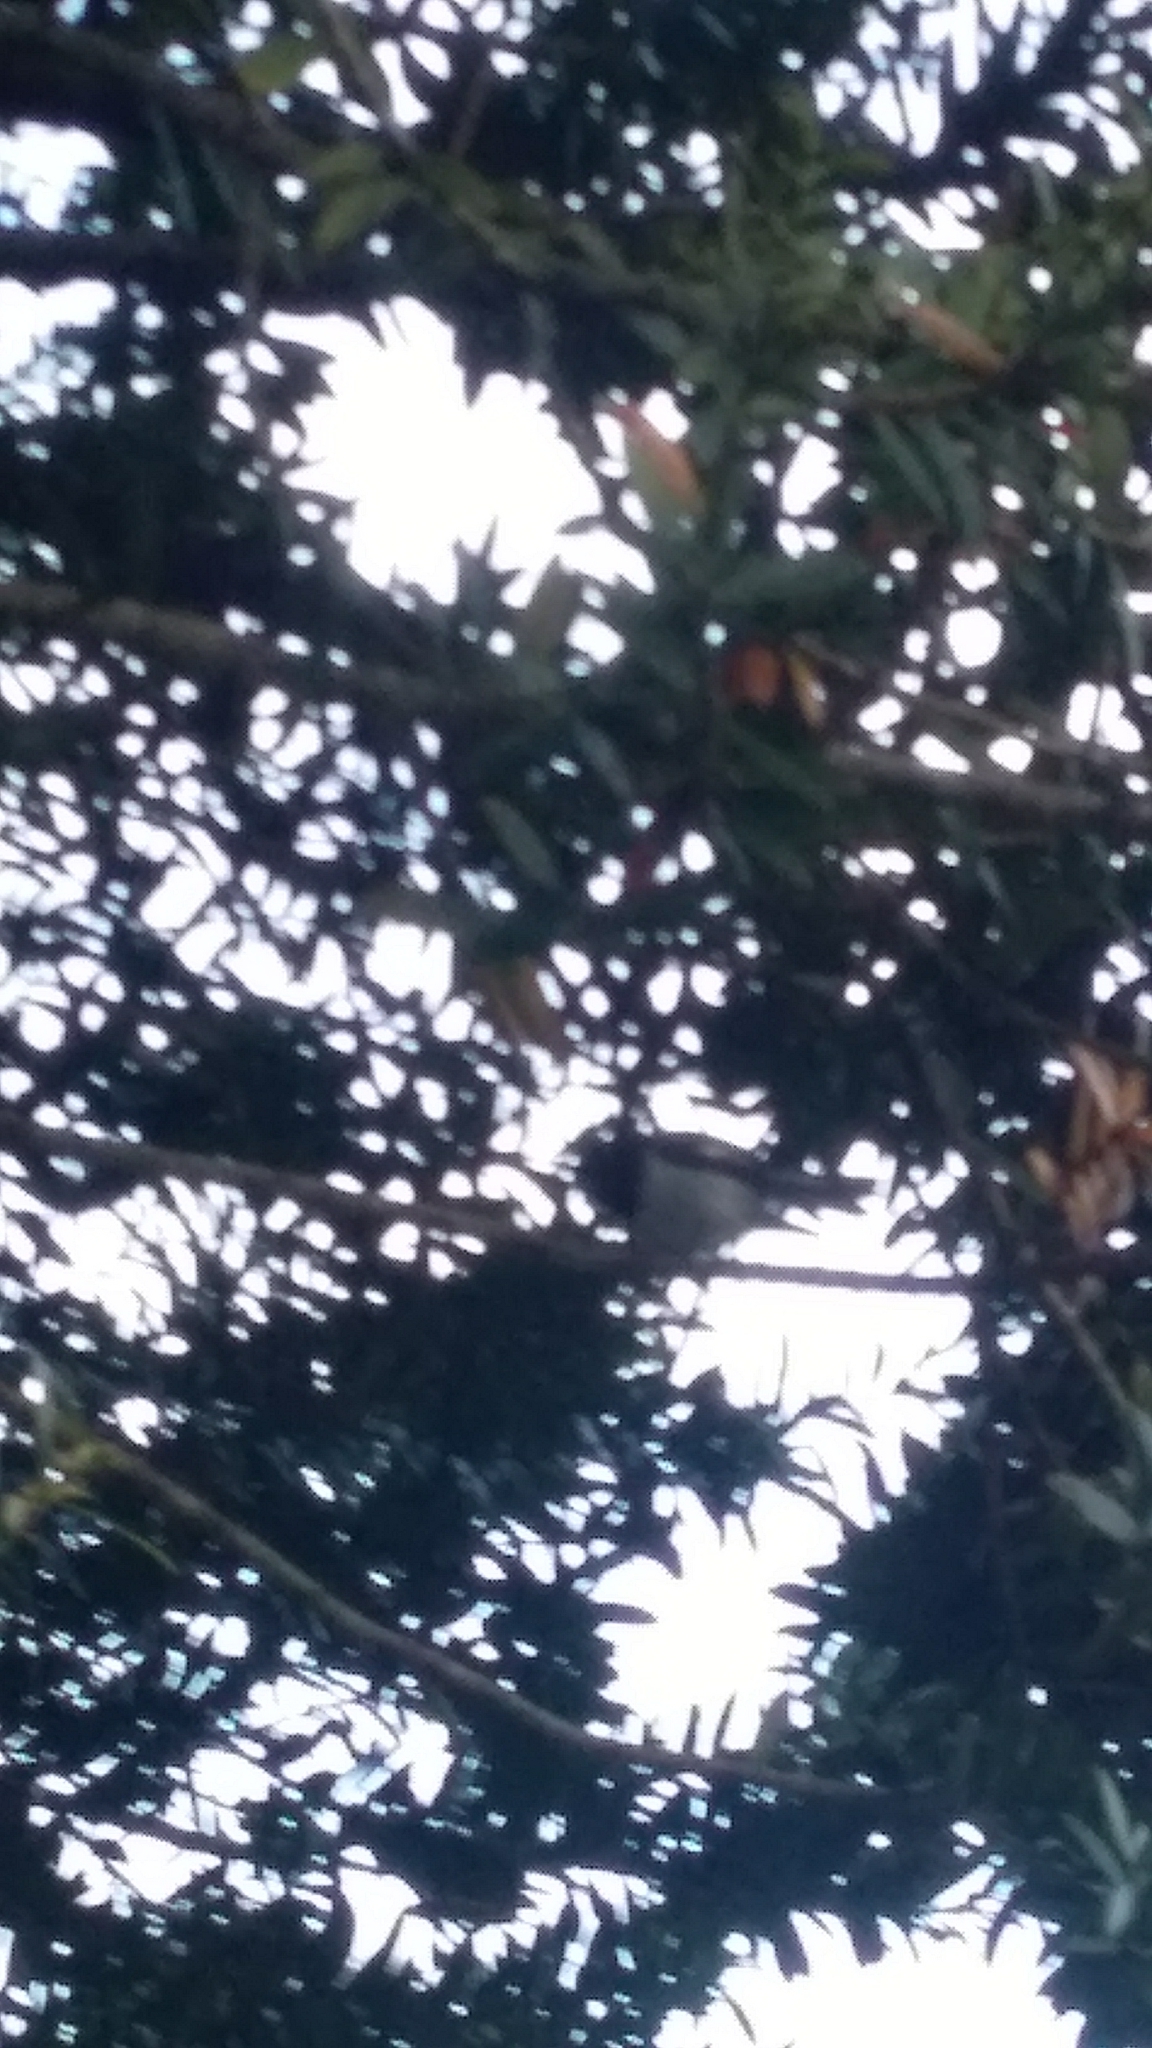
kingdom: Animalia
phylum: Chordata
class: Aves
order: Passeriformes
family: Petroicidae
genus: Petroica
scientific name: Petroica macrocephala
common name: Tomtit
